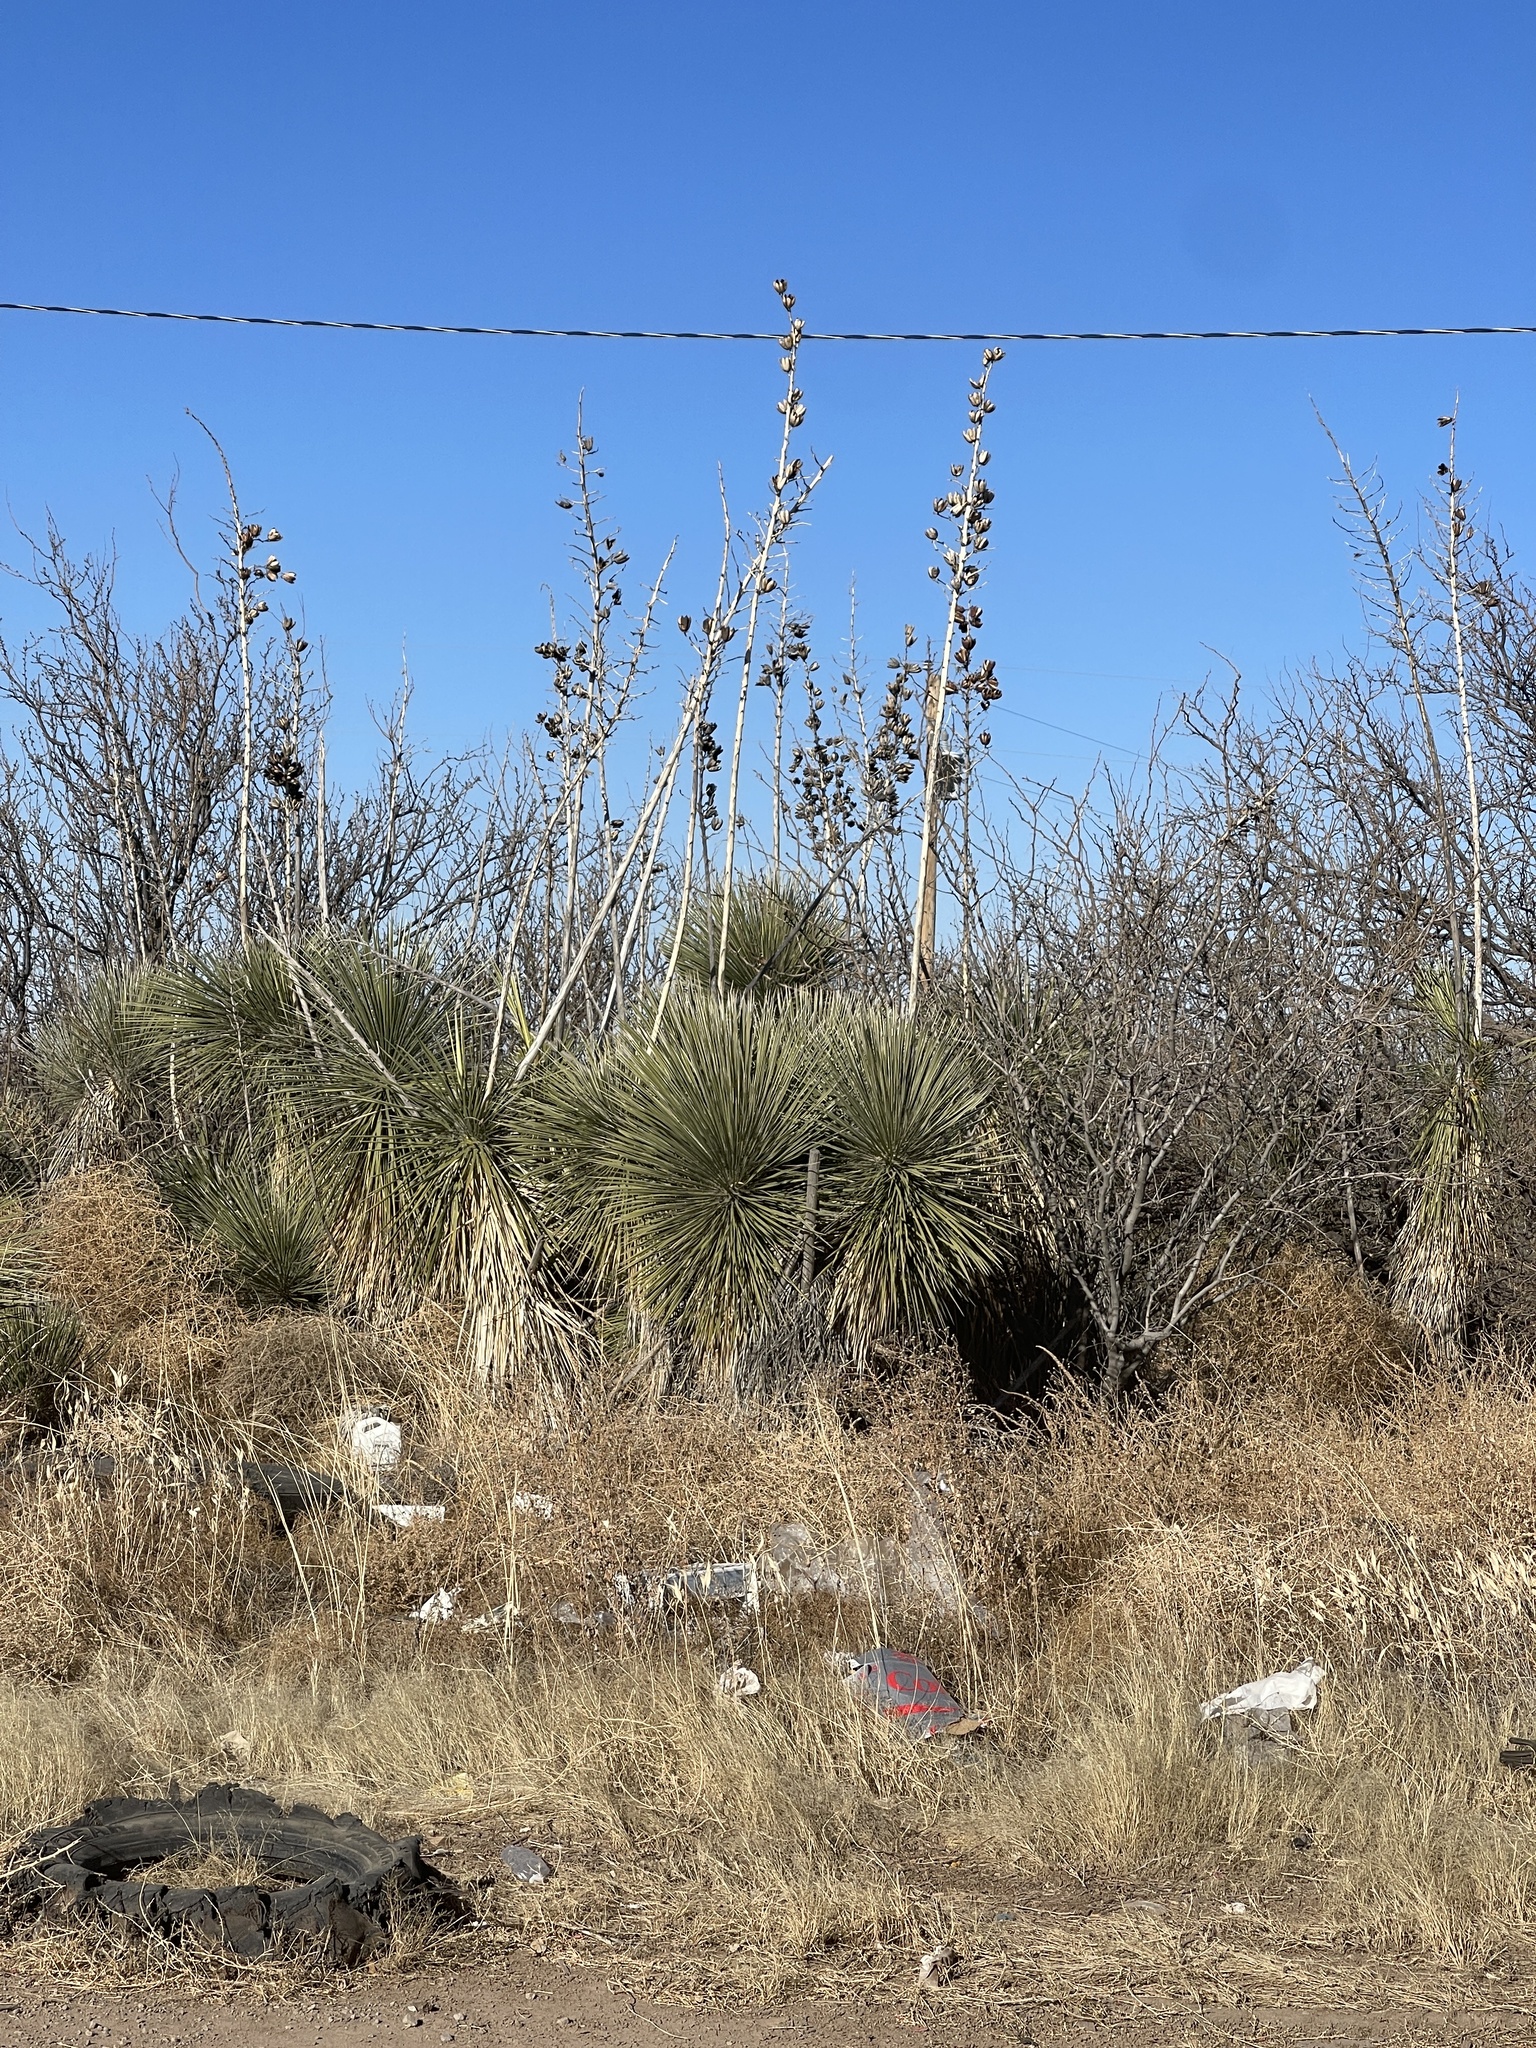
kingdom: Plantae
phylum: Tracheophyta
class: Liliopsida
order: Asparagales
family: Asparagaceae
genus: Yucca
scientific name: Yucca elata
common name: Palmella
